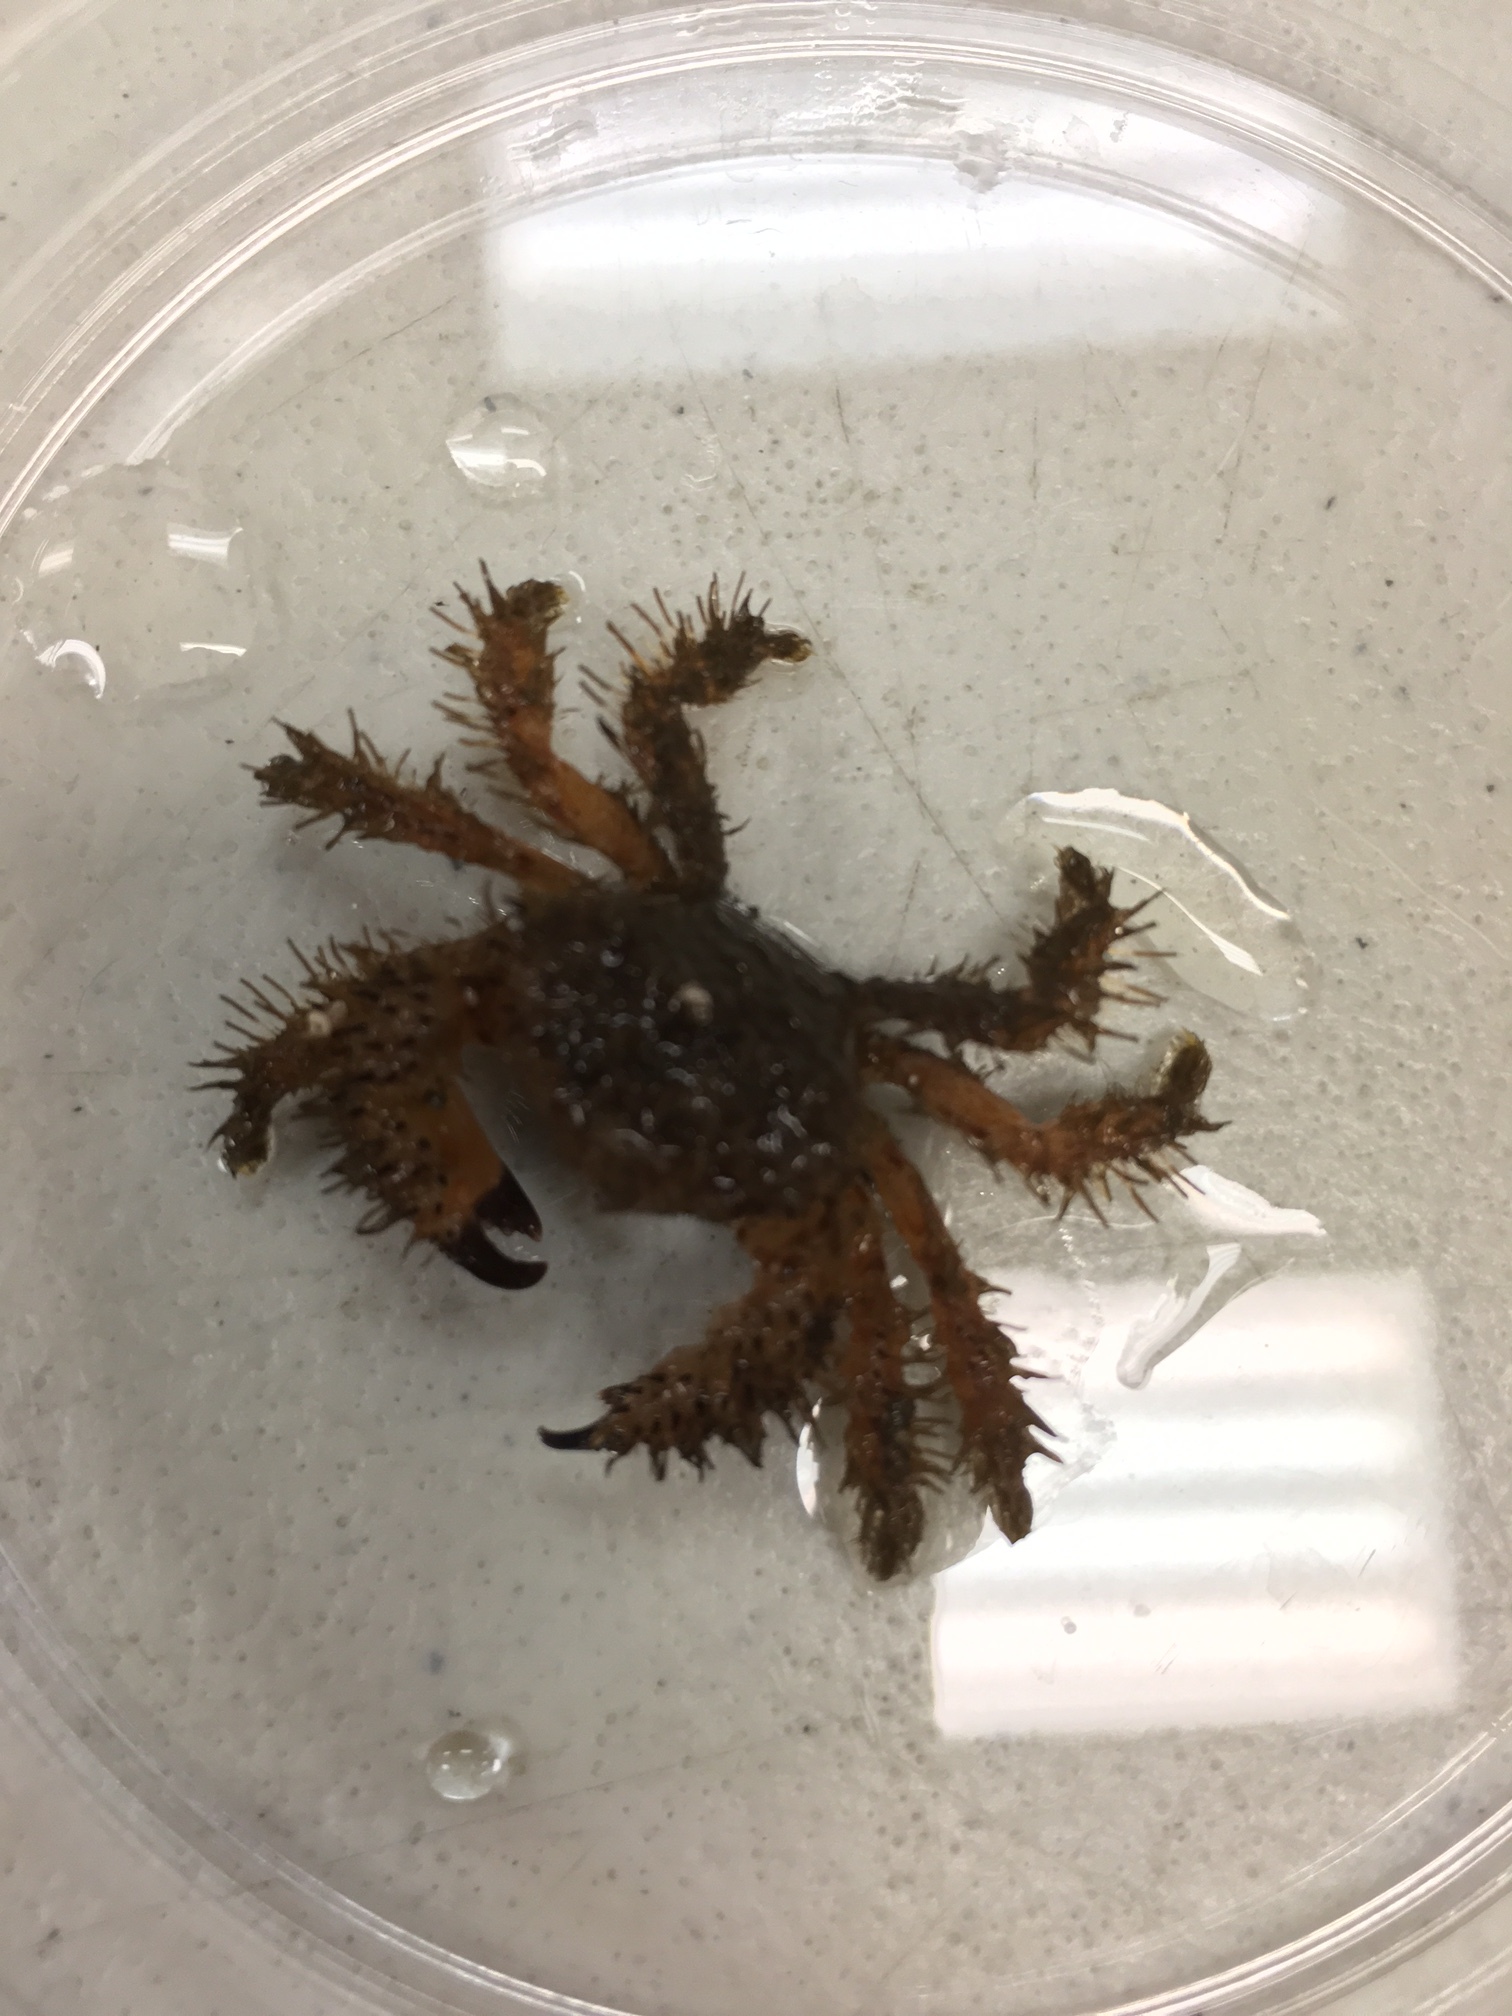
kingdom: Animalia
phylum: Arthropoda
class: Malacostraca
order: Decapoda
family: Pilumnidae
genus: Pilumnus
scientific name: Pilumnus spinohirsutus
